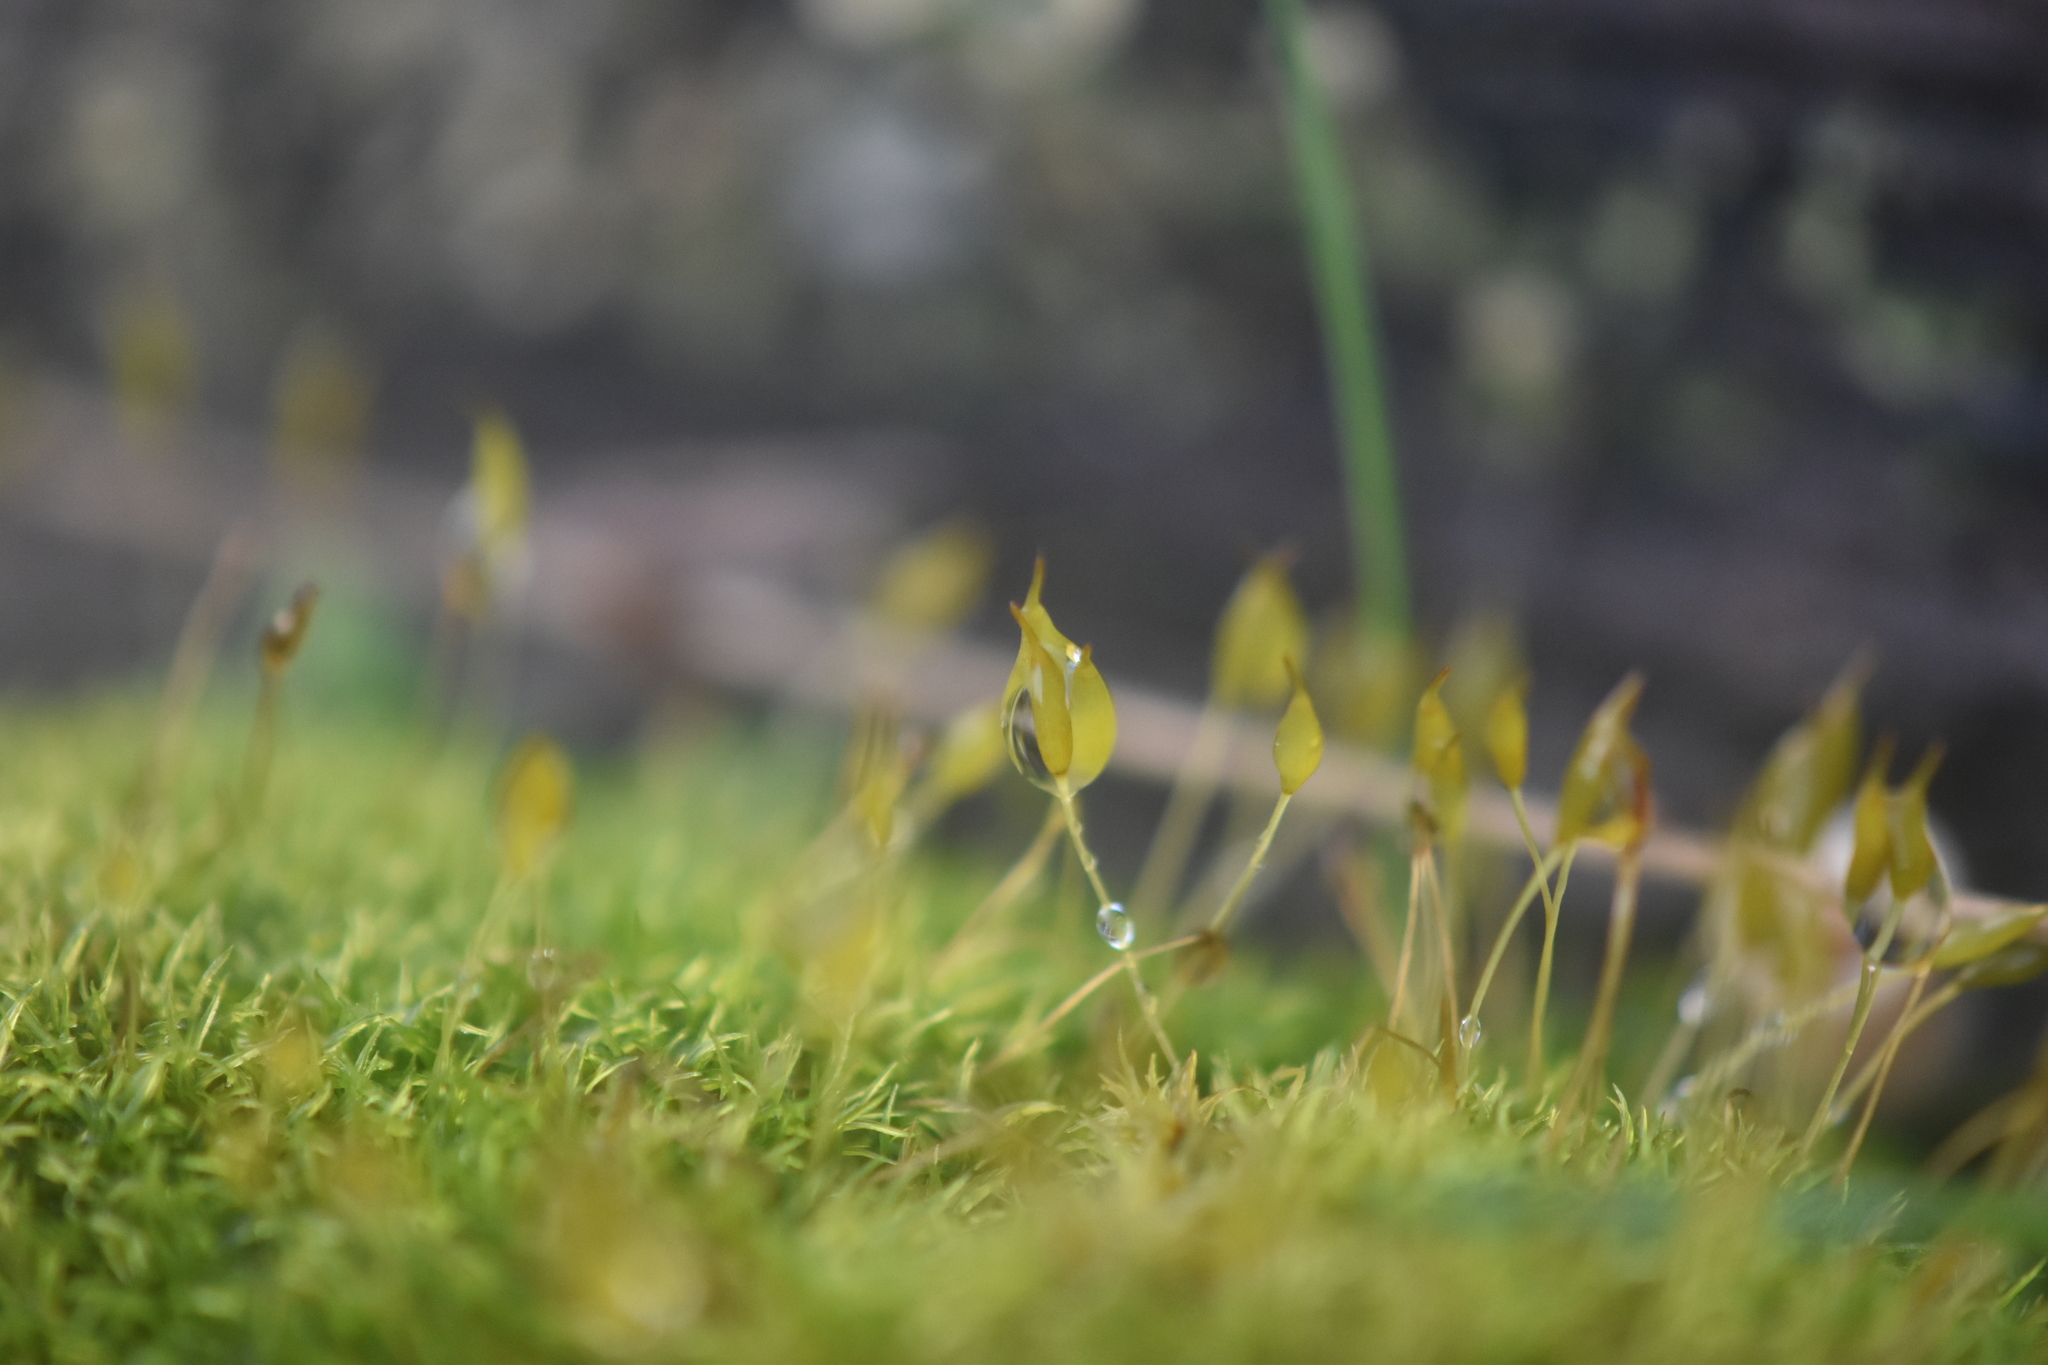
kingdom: Plantae
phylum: Bryophyta
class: Bryopsida
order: Dicranales
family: Rhabdoweisiaceae
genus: Dicranoweisia
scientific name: Dicranoweisia cirrata
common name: Common pincushion
